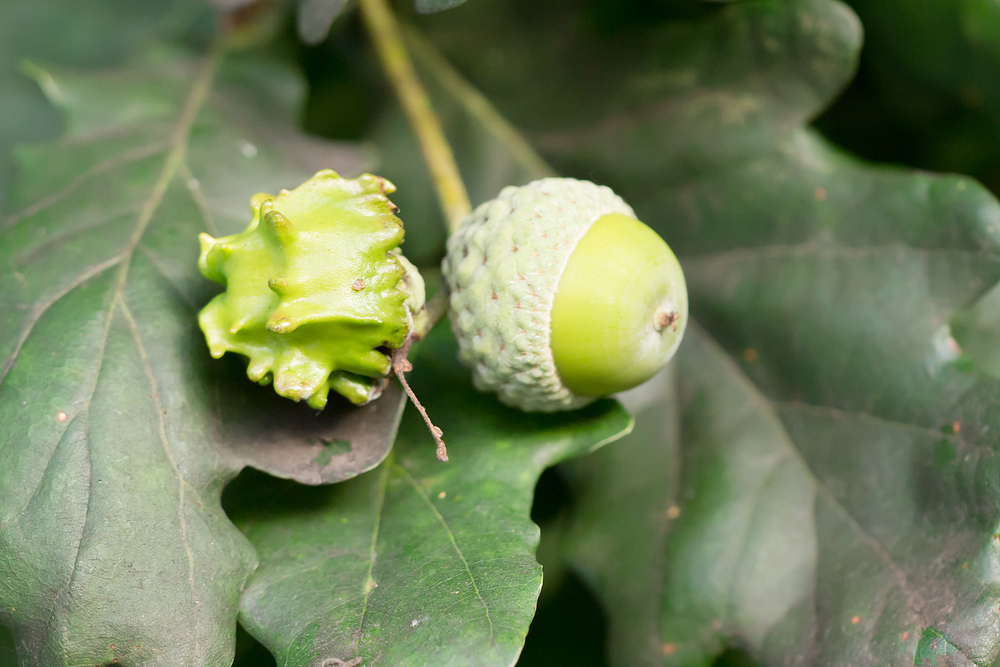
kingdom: Animalia
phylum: Arthropoda
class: Insecta
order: Hymenoptera
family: Cynipidae
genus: Andricus
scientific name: Andricus quercuscalicis
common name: Knopper gall
